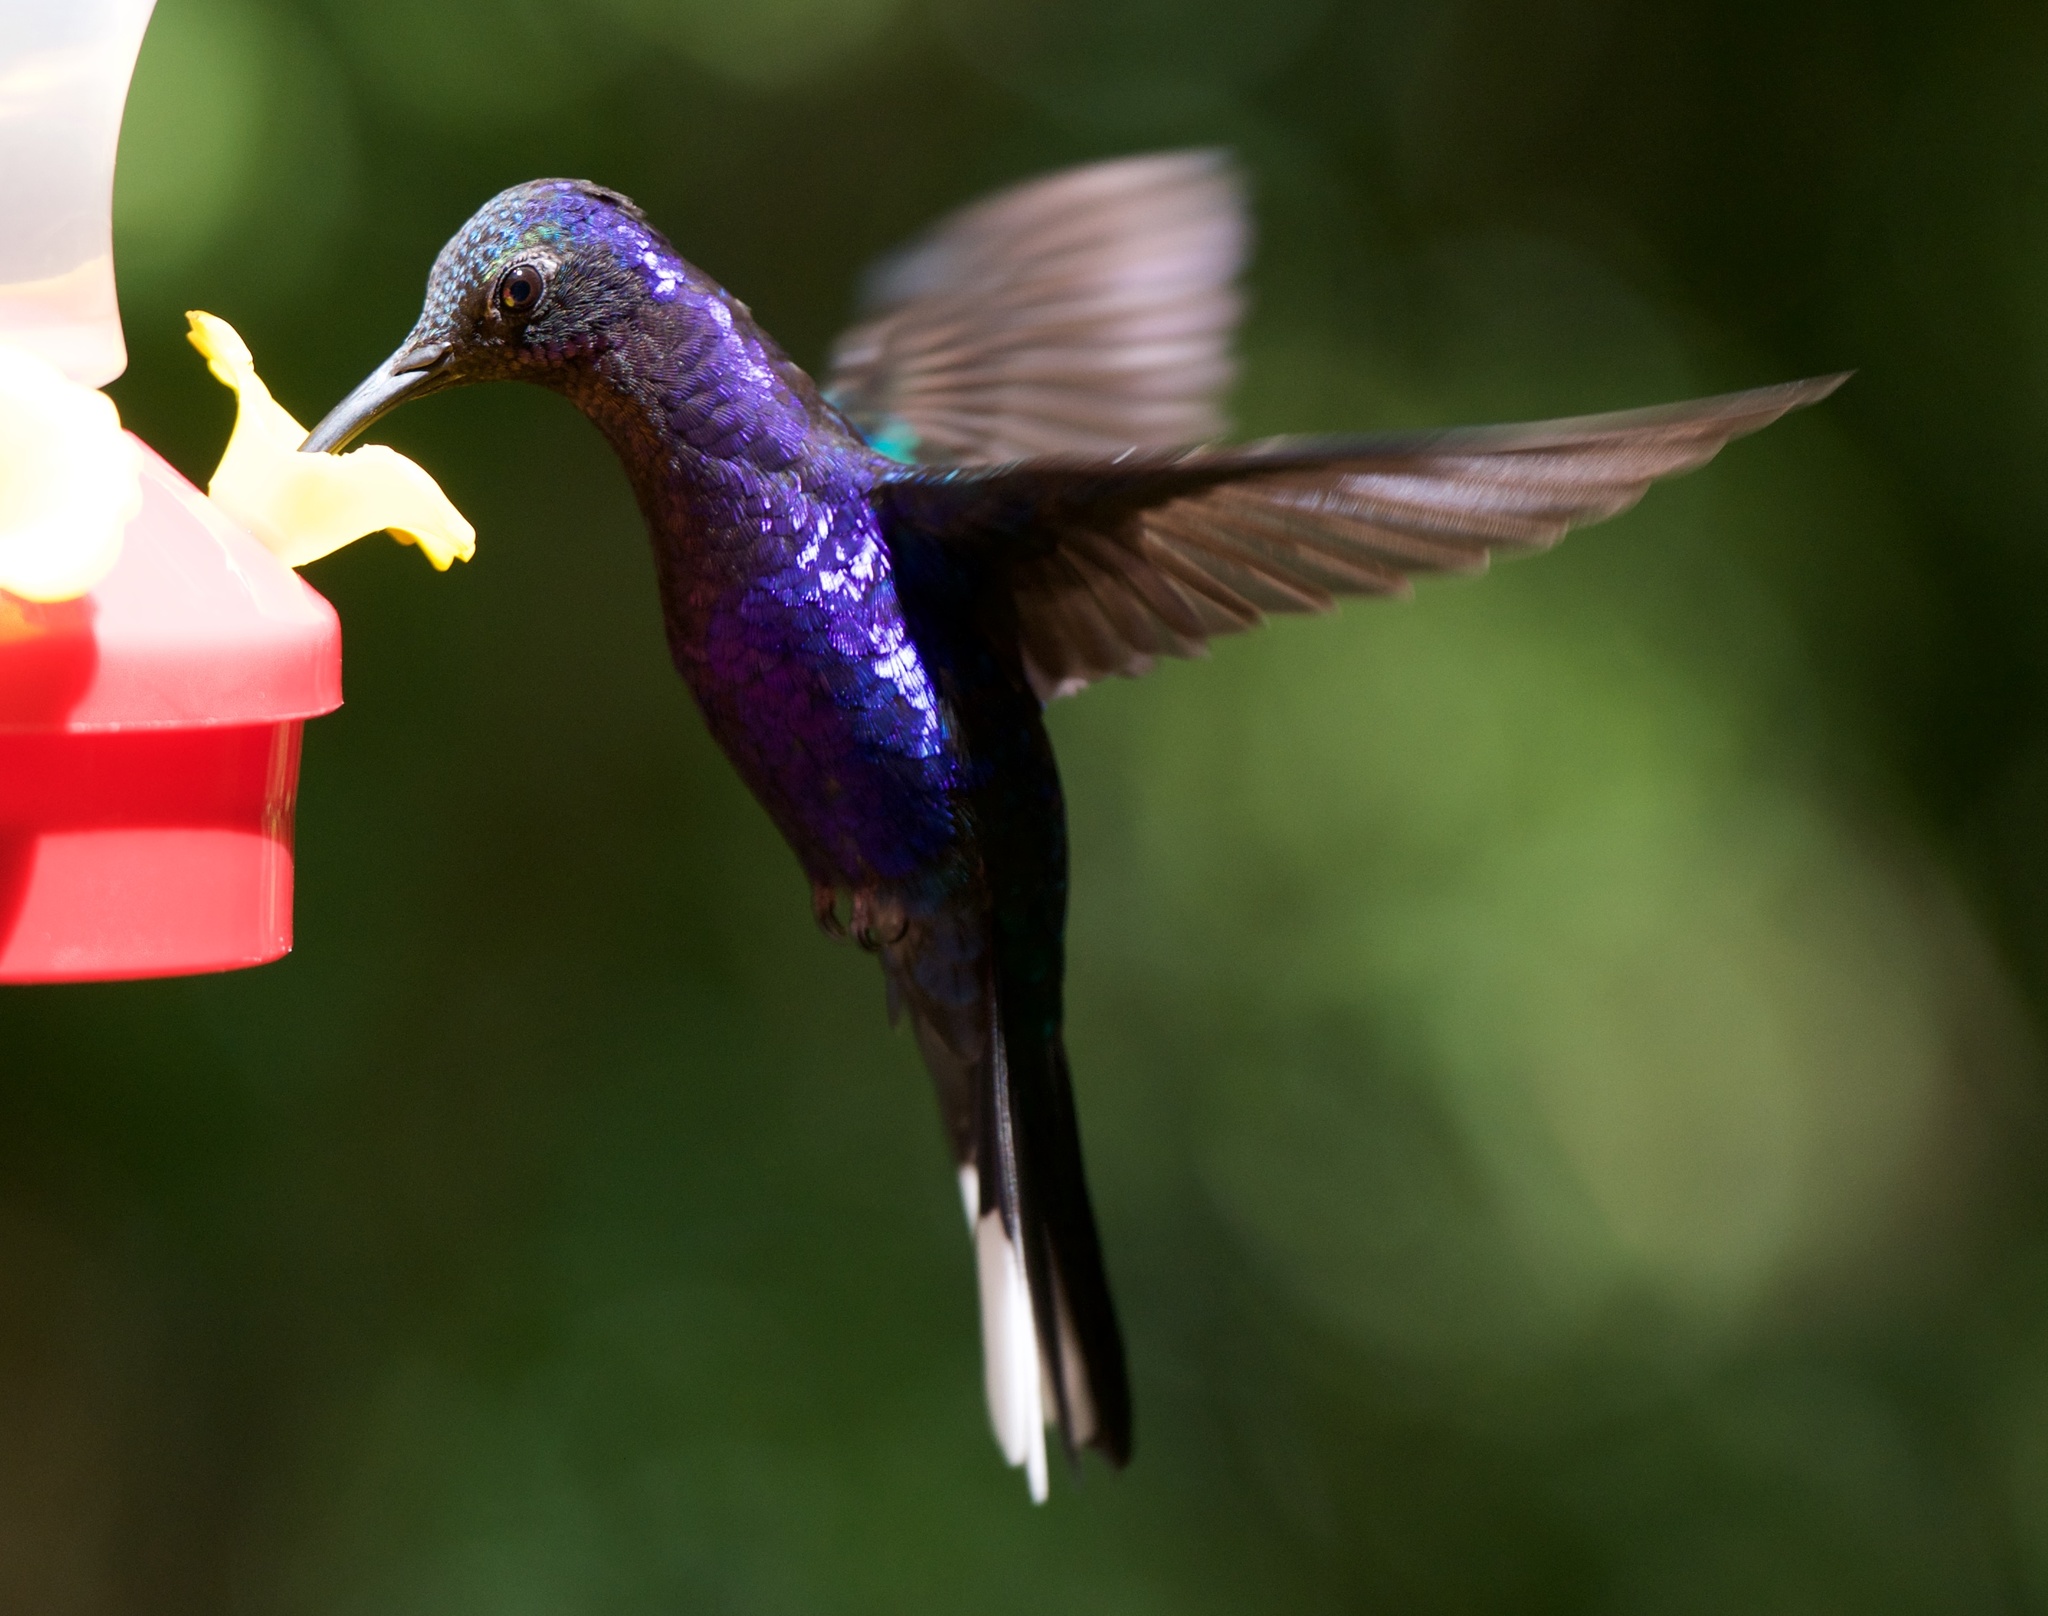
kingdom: Animalia
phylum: Chordata
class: Aves
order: Apodiformes
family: Trochilidae
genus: Campylopterus
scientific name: Campylopterus hemileucurus
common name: Violet sabrewing
